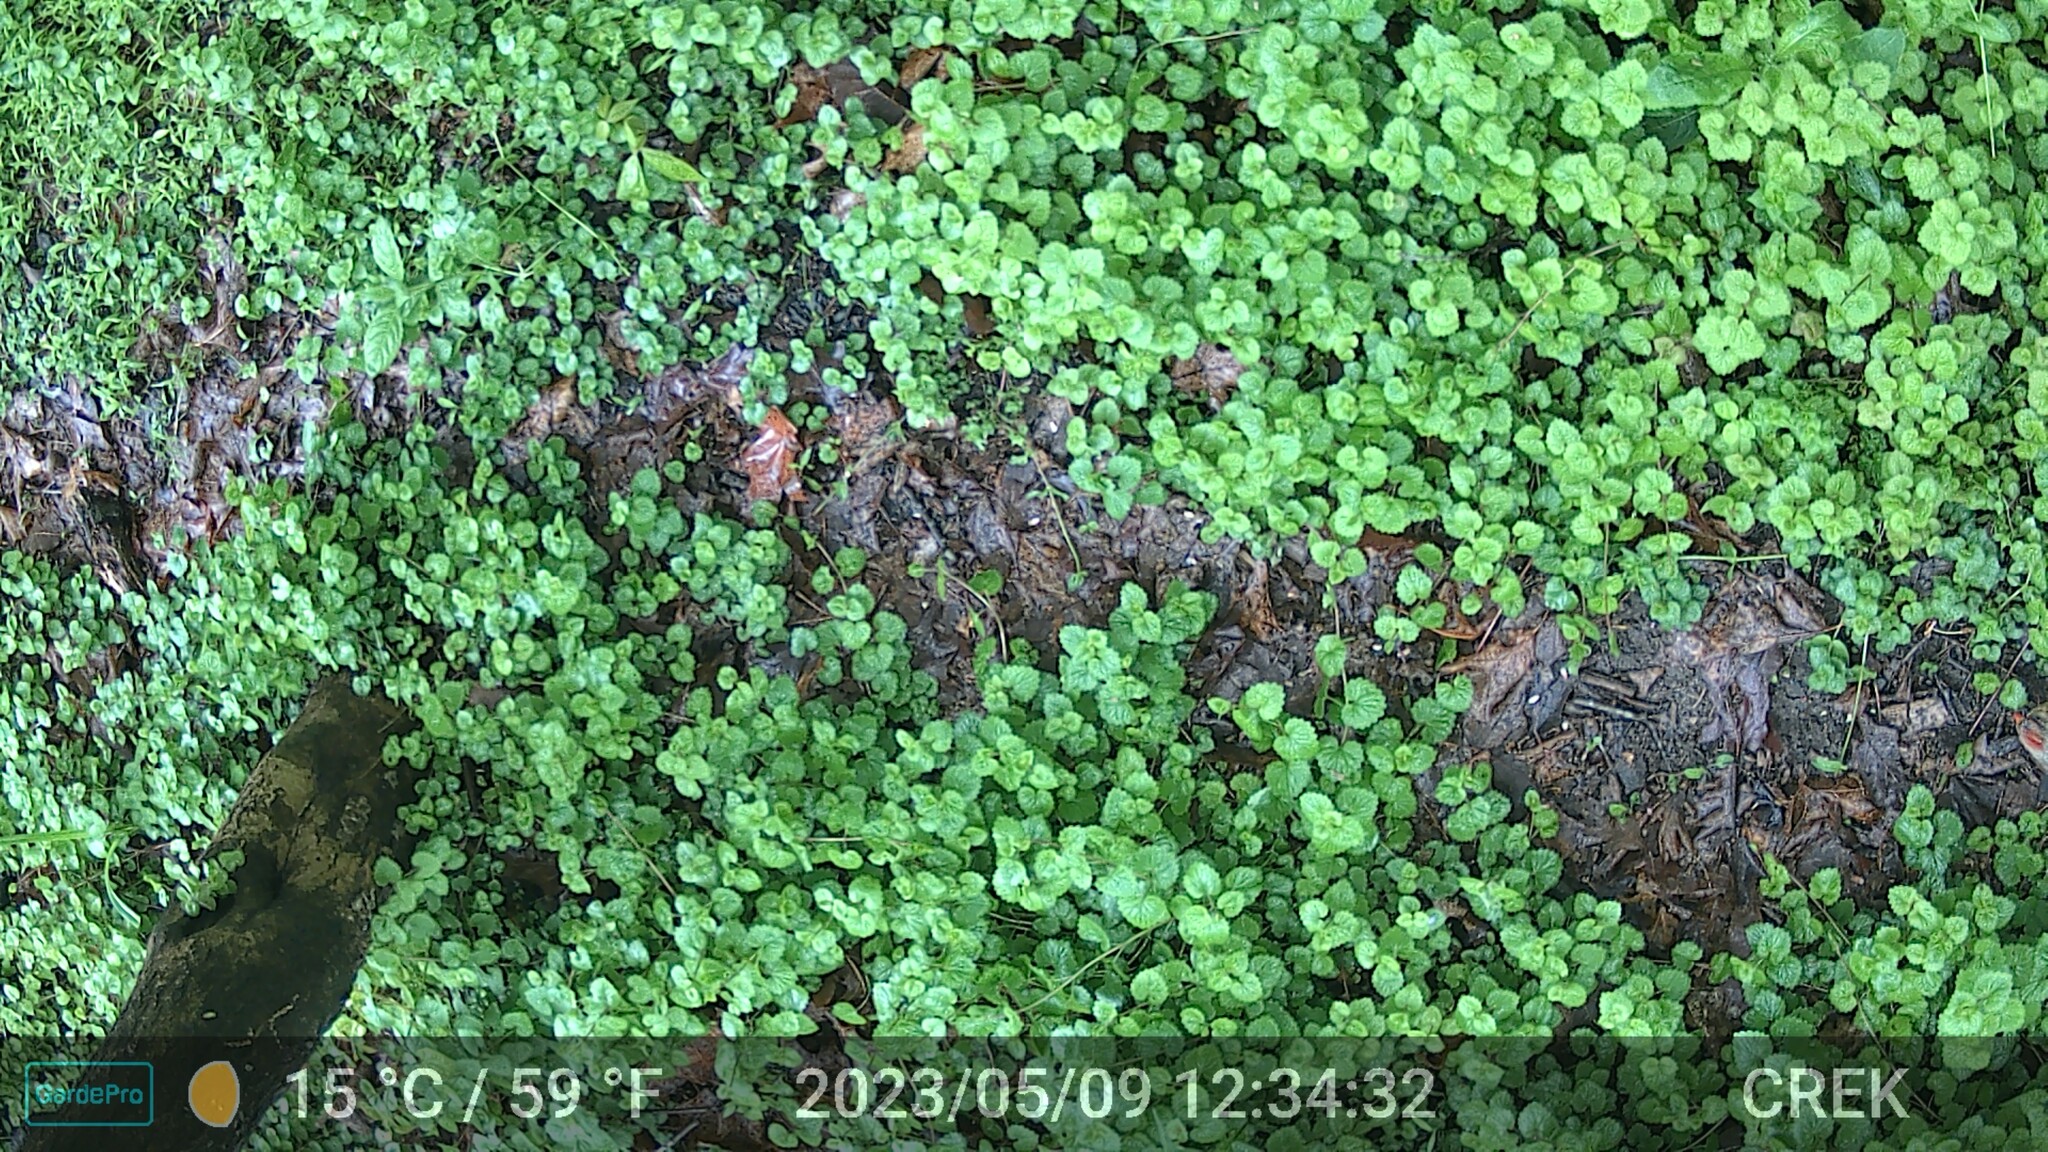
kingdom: Animalia
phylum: Chordata
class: Aves
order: Passeriformes
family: Cardinalidae
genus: Cardinalis
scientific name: Cardinalis cardinalis
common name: Northern cardinal
